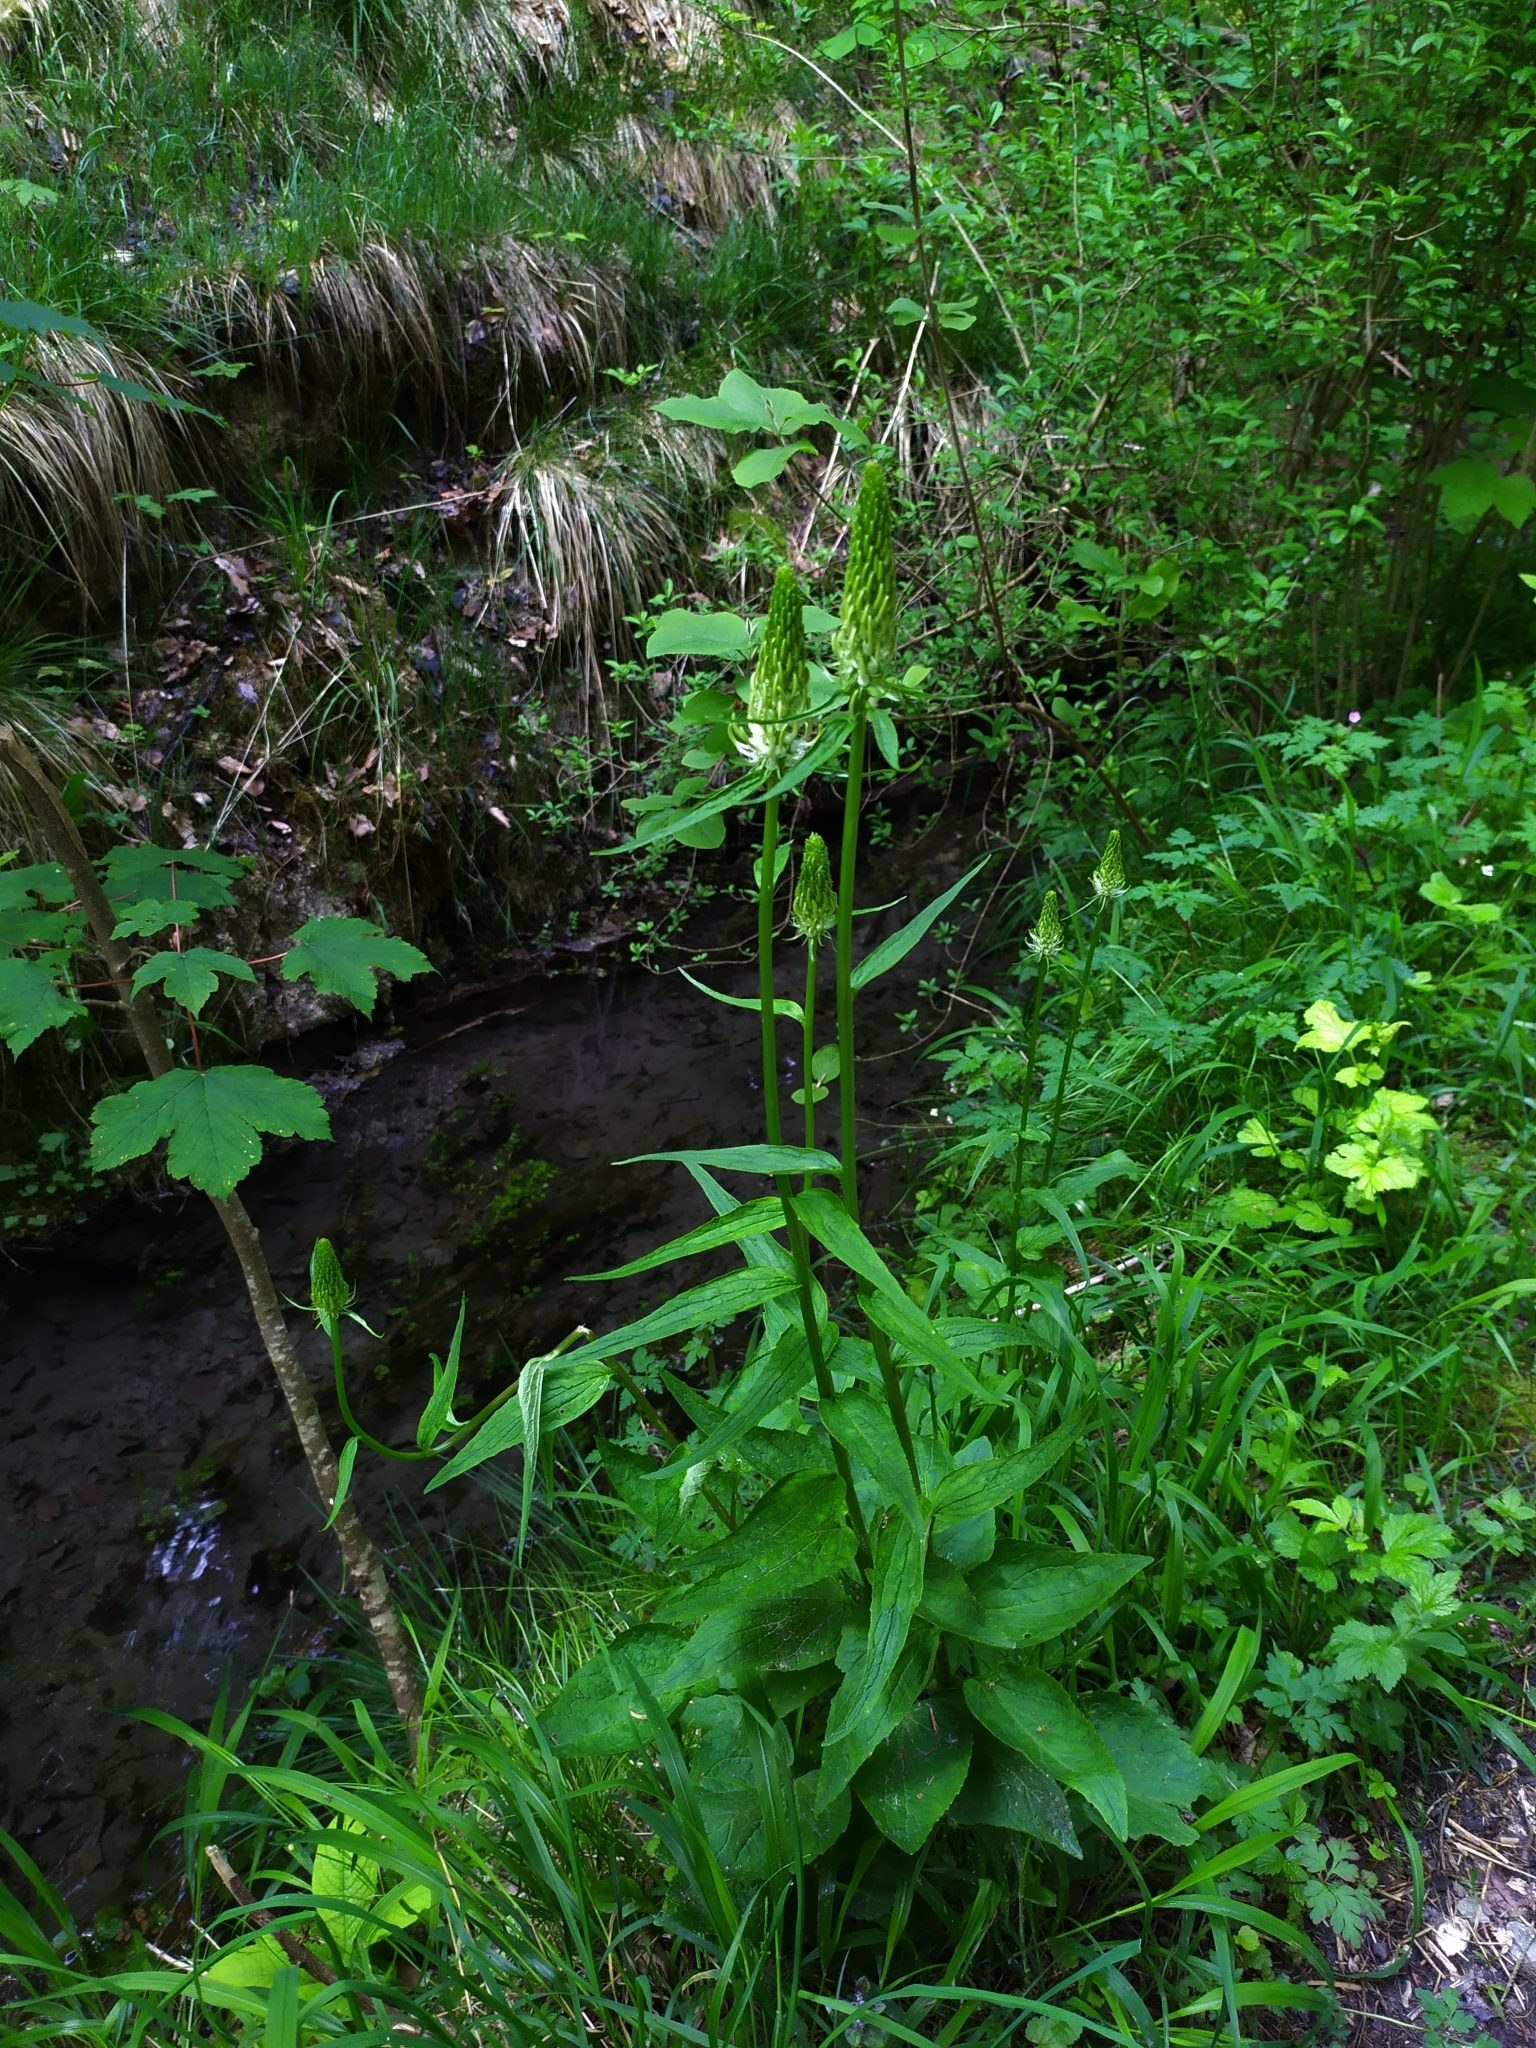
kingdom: Plantae
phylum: Tracheophyta
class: Magnoliopsida
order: Asterales
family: Campanulaceae
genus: Phyteuma
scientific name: Phyteuma spicatum
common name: Spiked rampion
